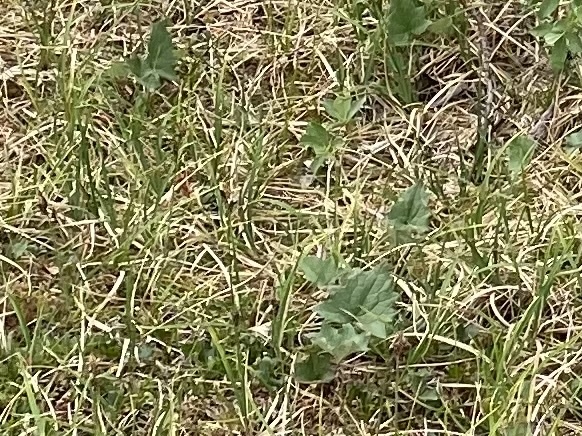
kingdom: Plantae
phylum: Tracheophyta
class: Magnoliopsida
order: Asterales
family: Asteraceae
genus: Petasites
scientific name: Petasites frigidus
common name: Arctic butterbur
